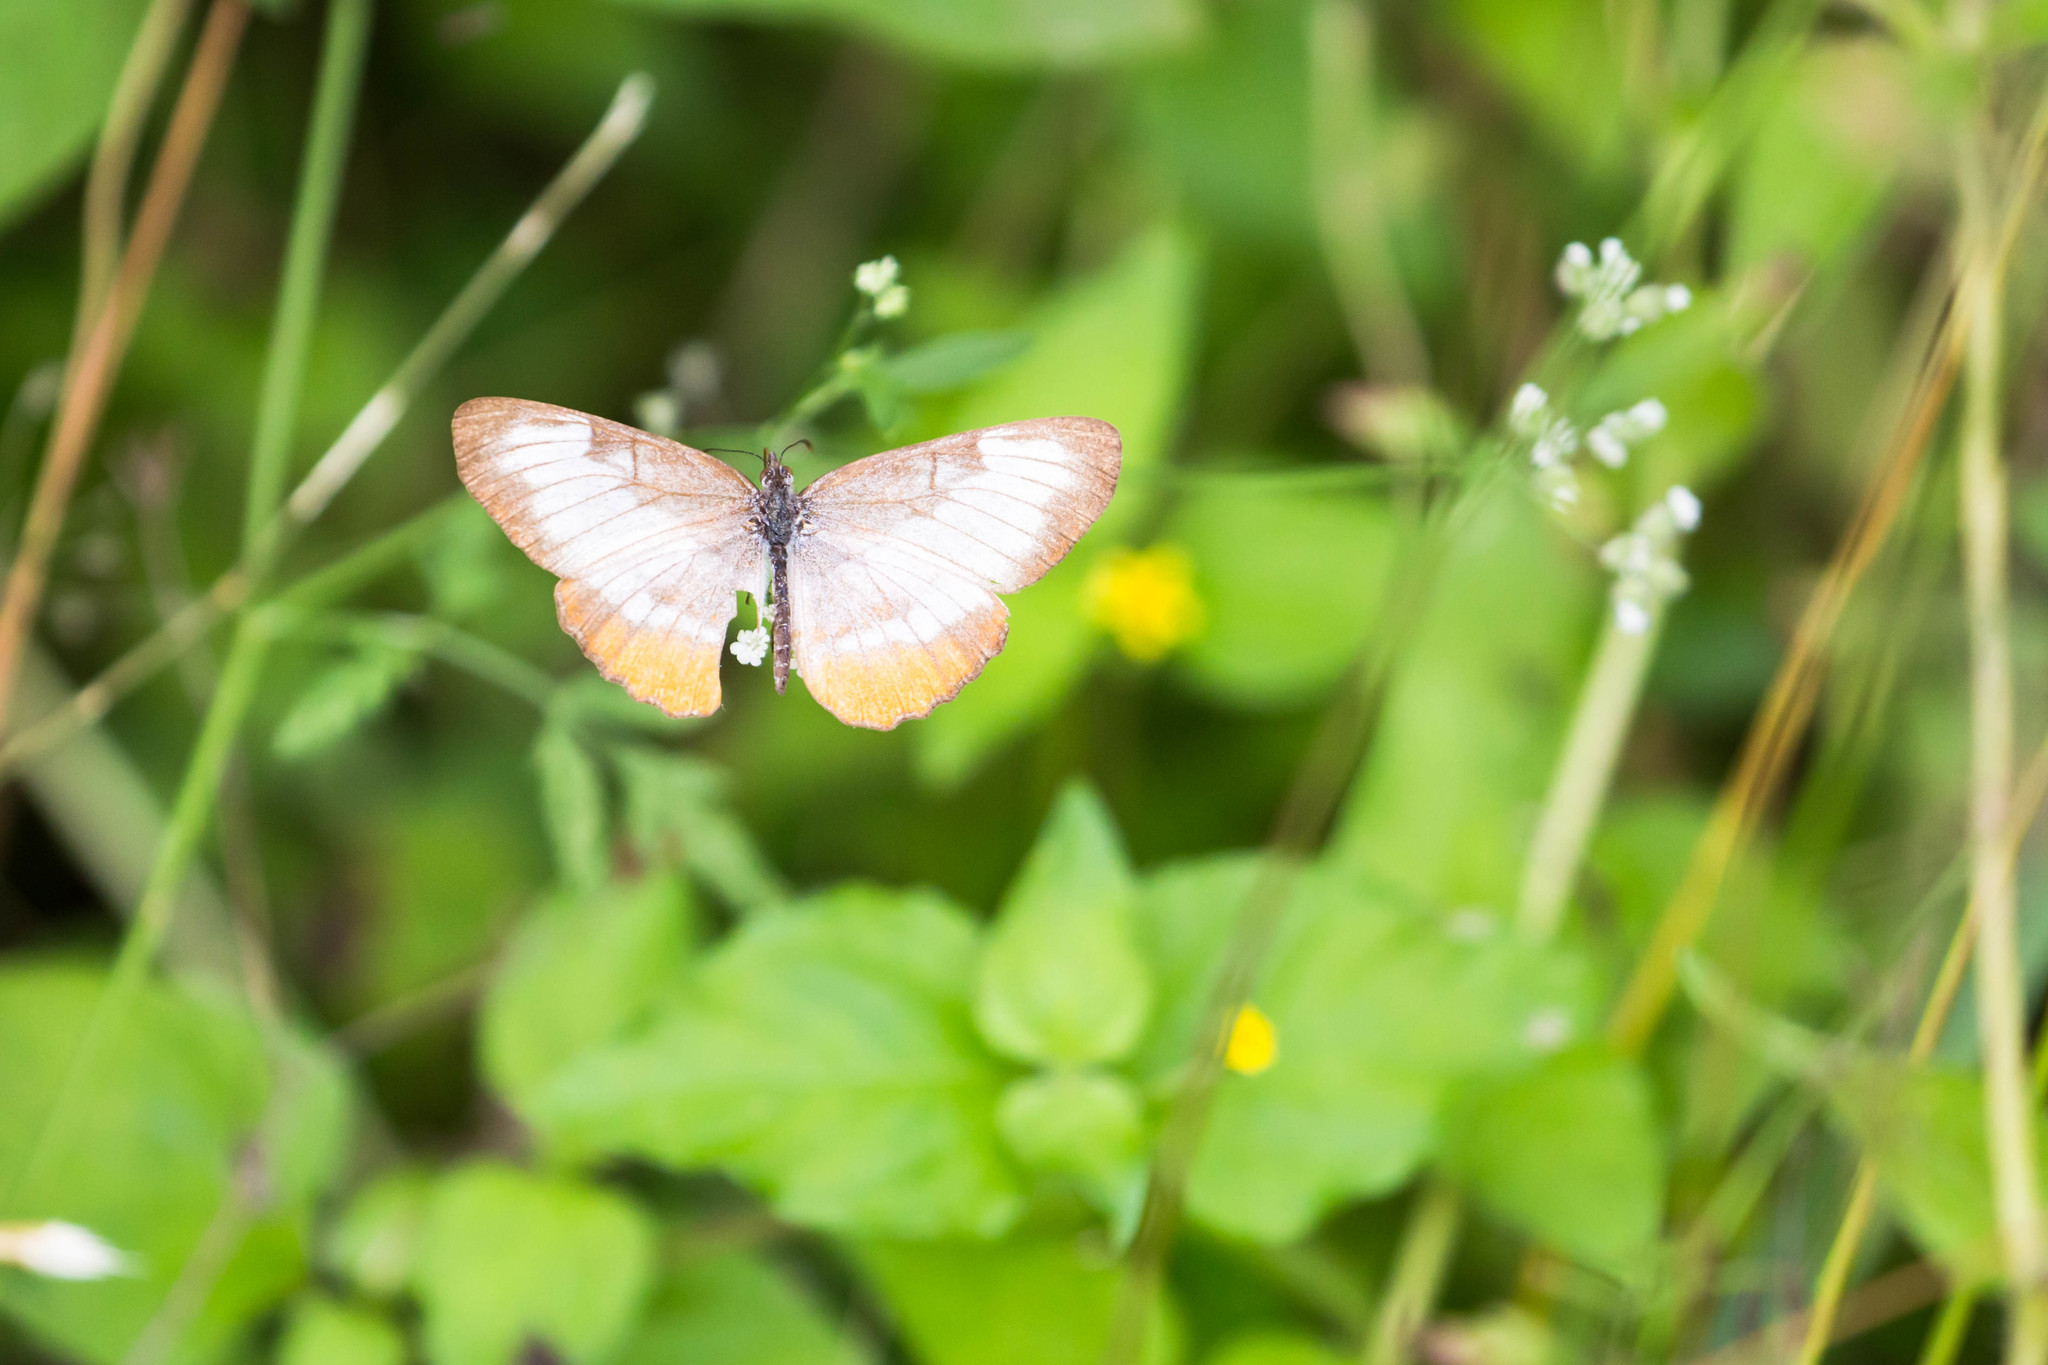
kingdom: Animalia
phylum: Arthropoda
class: Insecta
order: Lepidoptera
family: Nymphalidae
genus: Mestra
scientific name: Mestra amymone
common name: Common mestra
